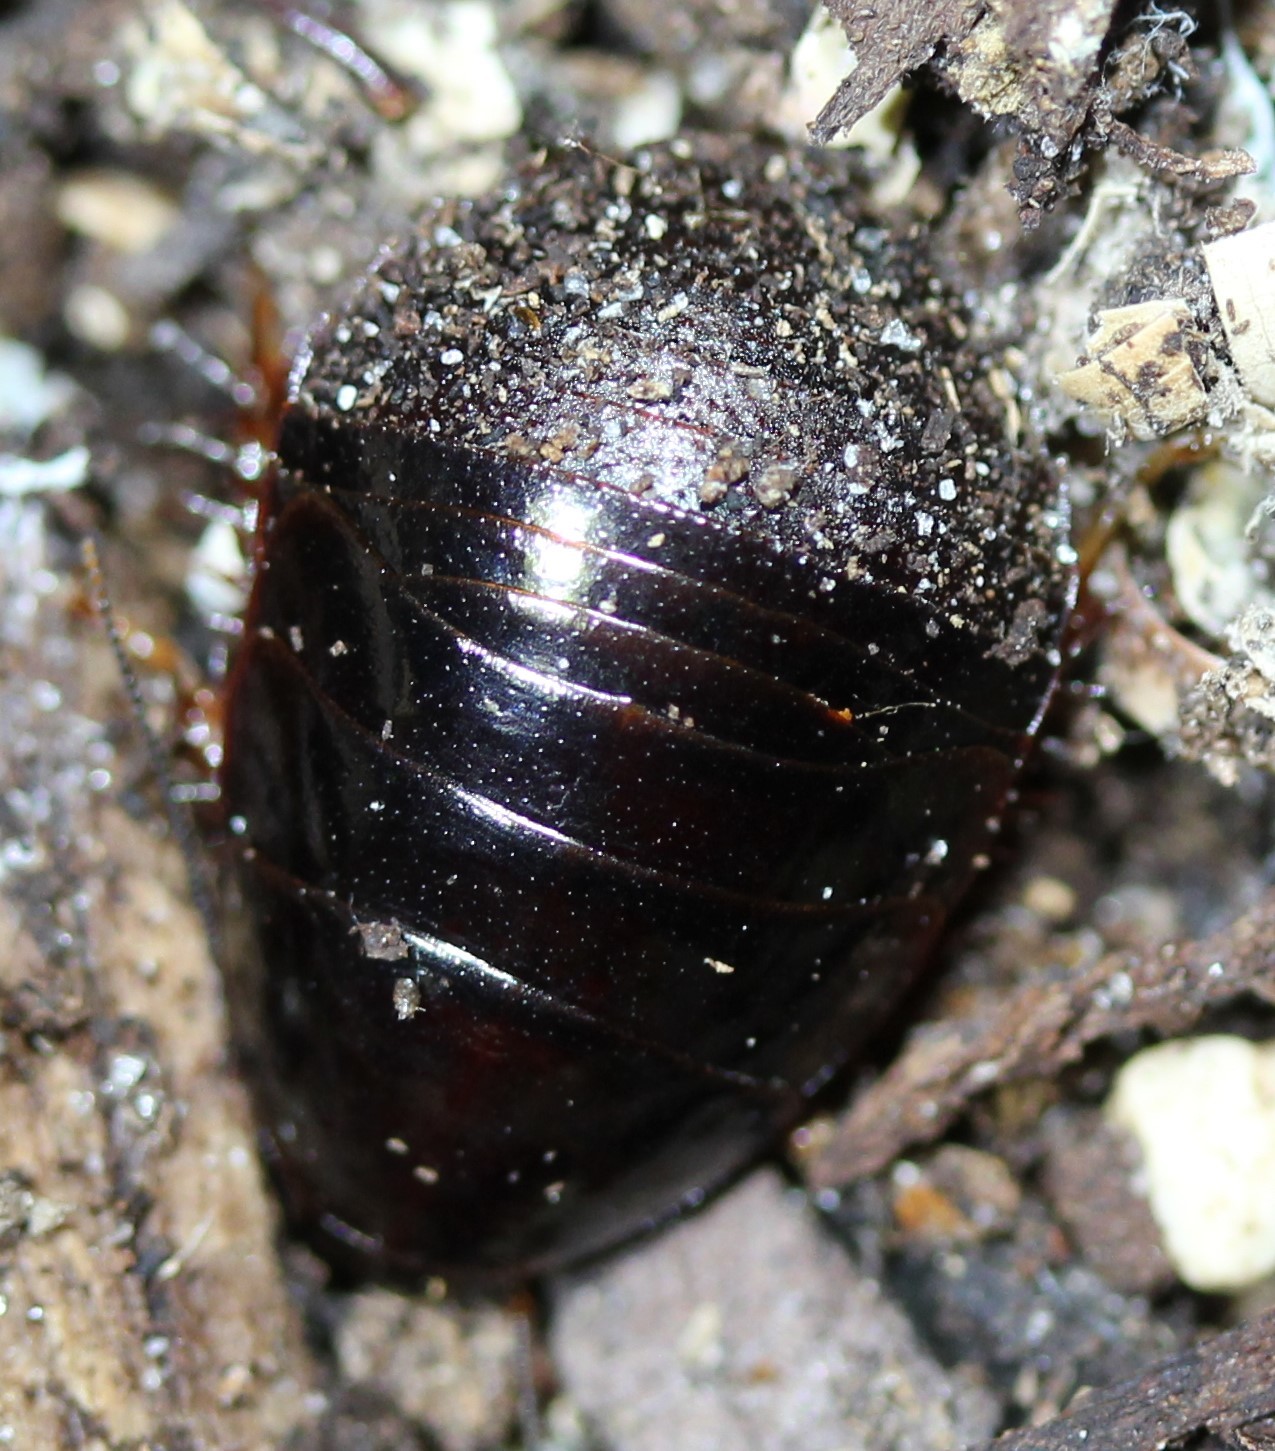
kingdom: Animalia
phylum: Arthropoda
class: Insecta
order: Blattodea
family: Blaberidae
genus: Pycnoscelus
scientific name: Pycnoscelus surinamensis
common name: Surinam cockroach
